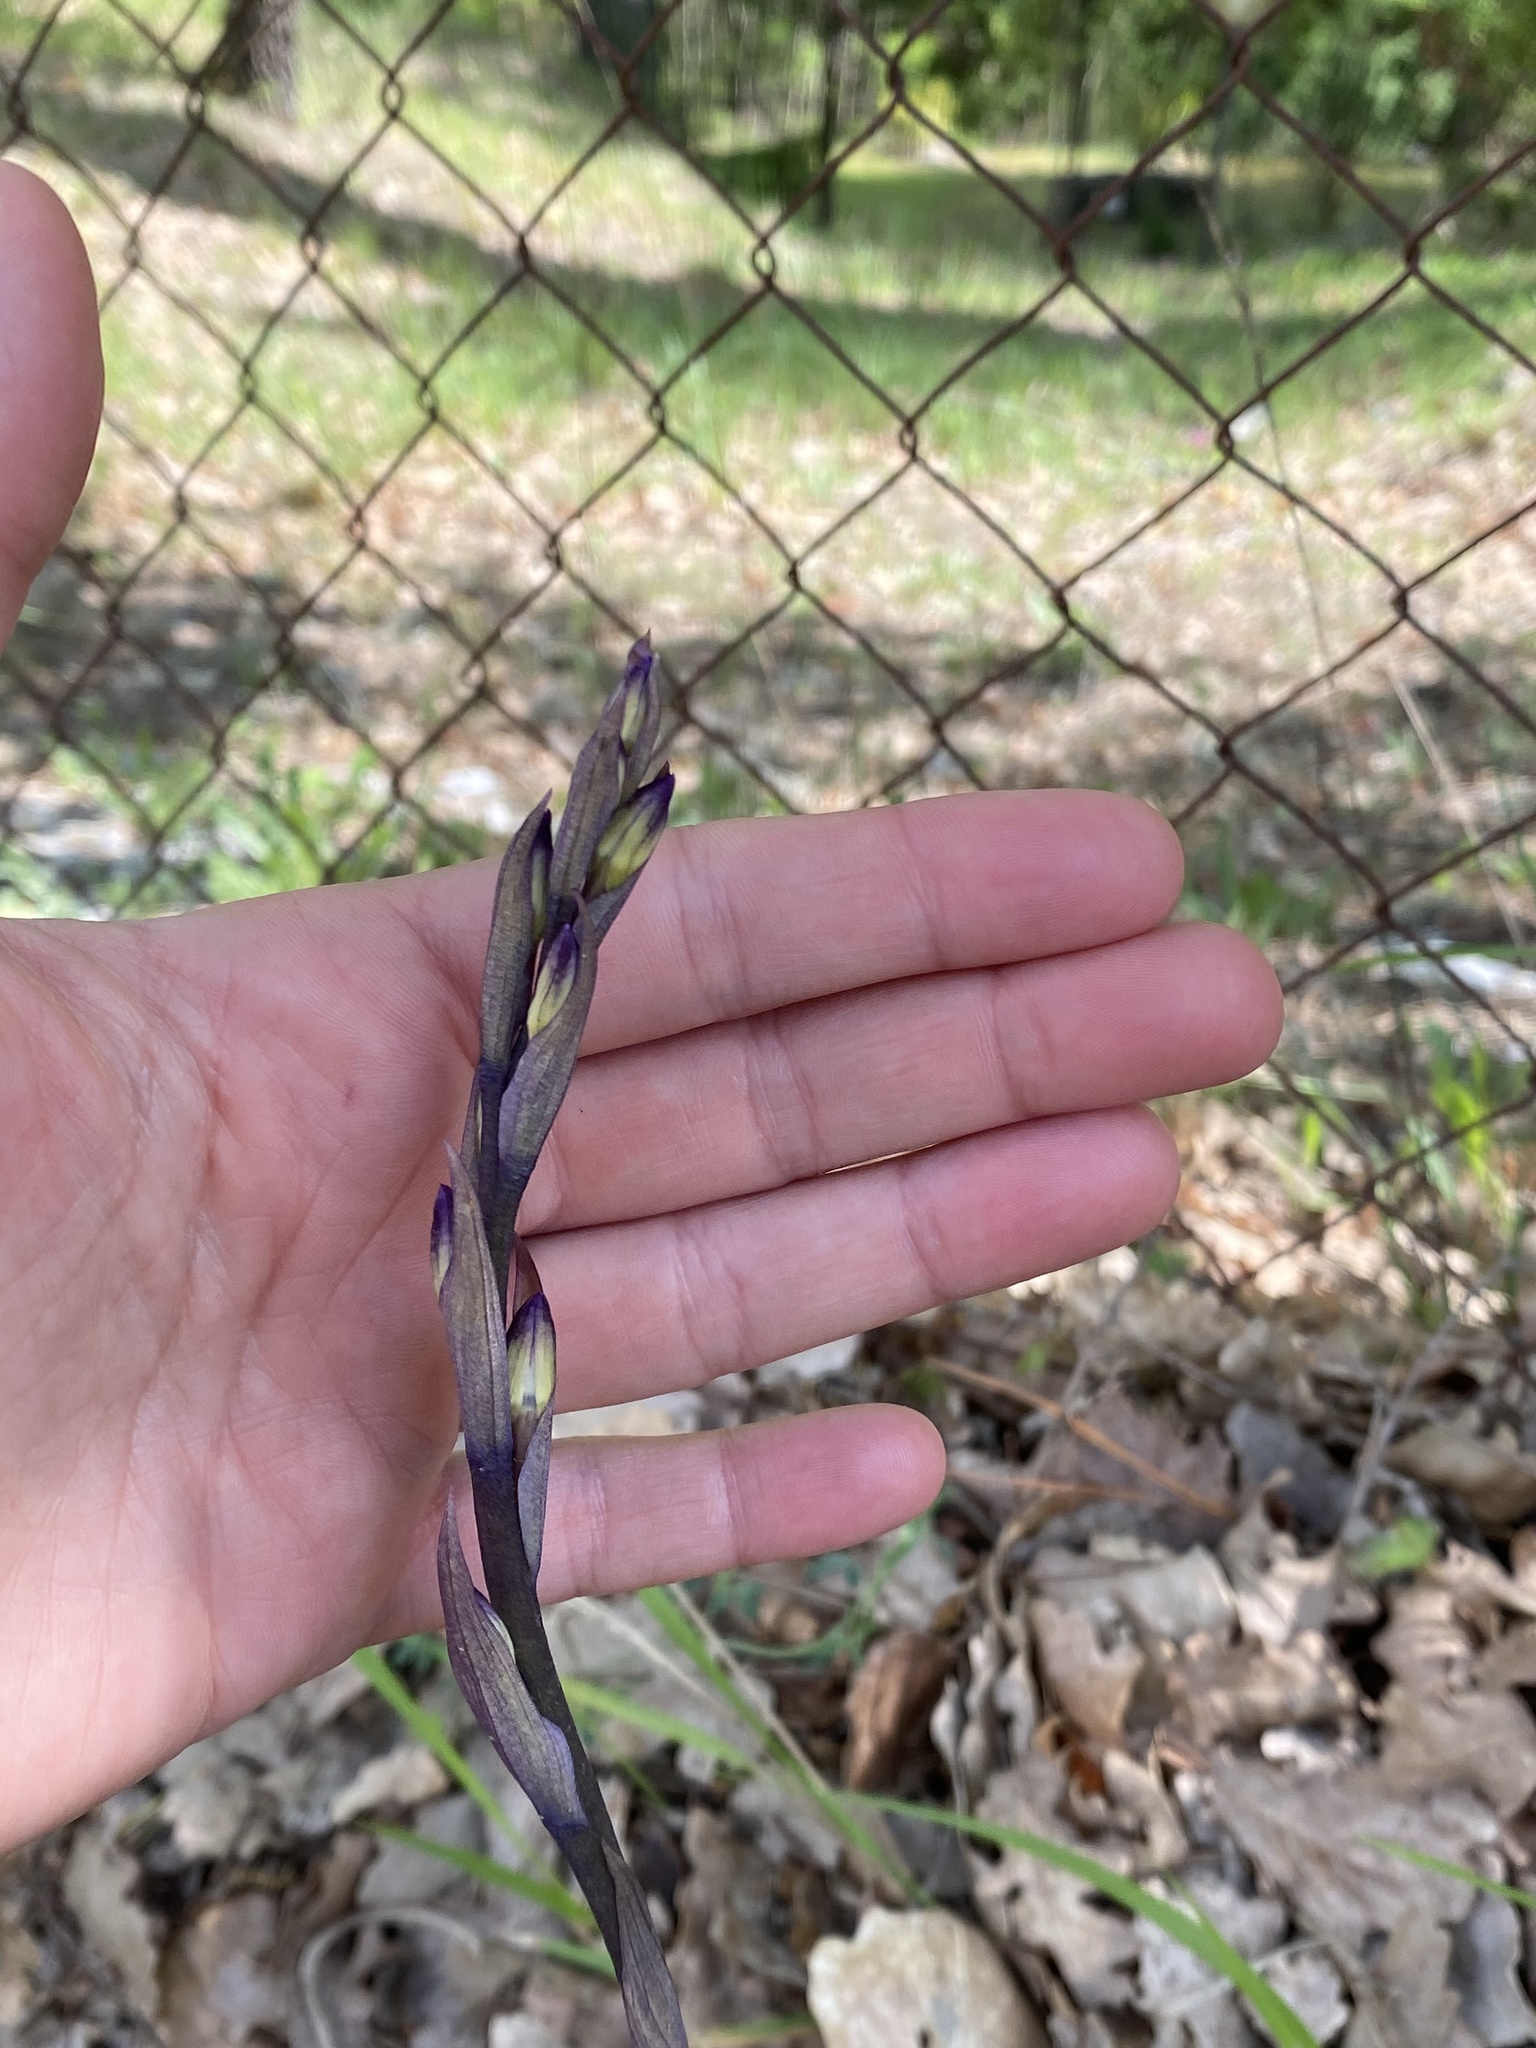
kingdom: Plantae
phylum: Tracheophyta
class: Liliopsida
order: Asparagales
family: Orchidaceae
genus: Limodorum
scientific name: Limodorum abortivum
